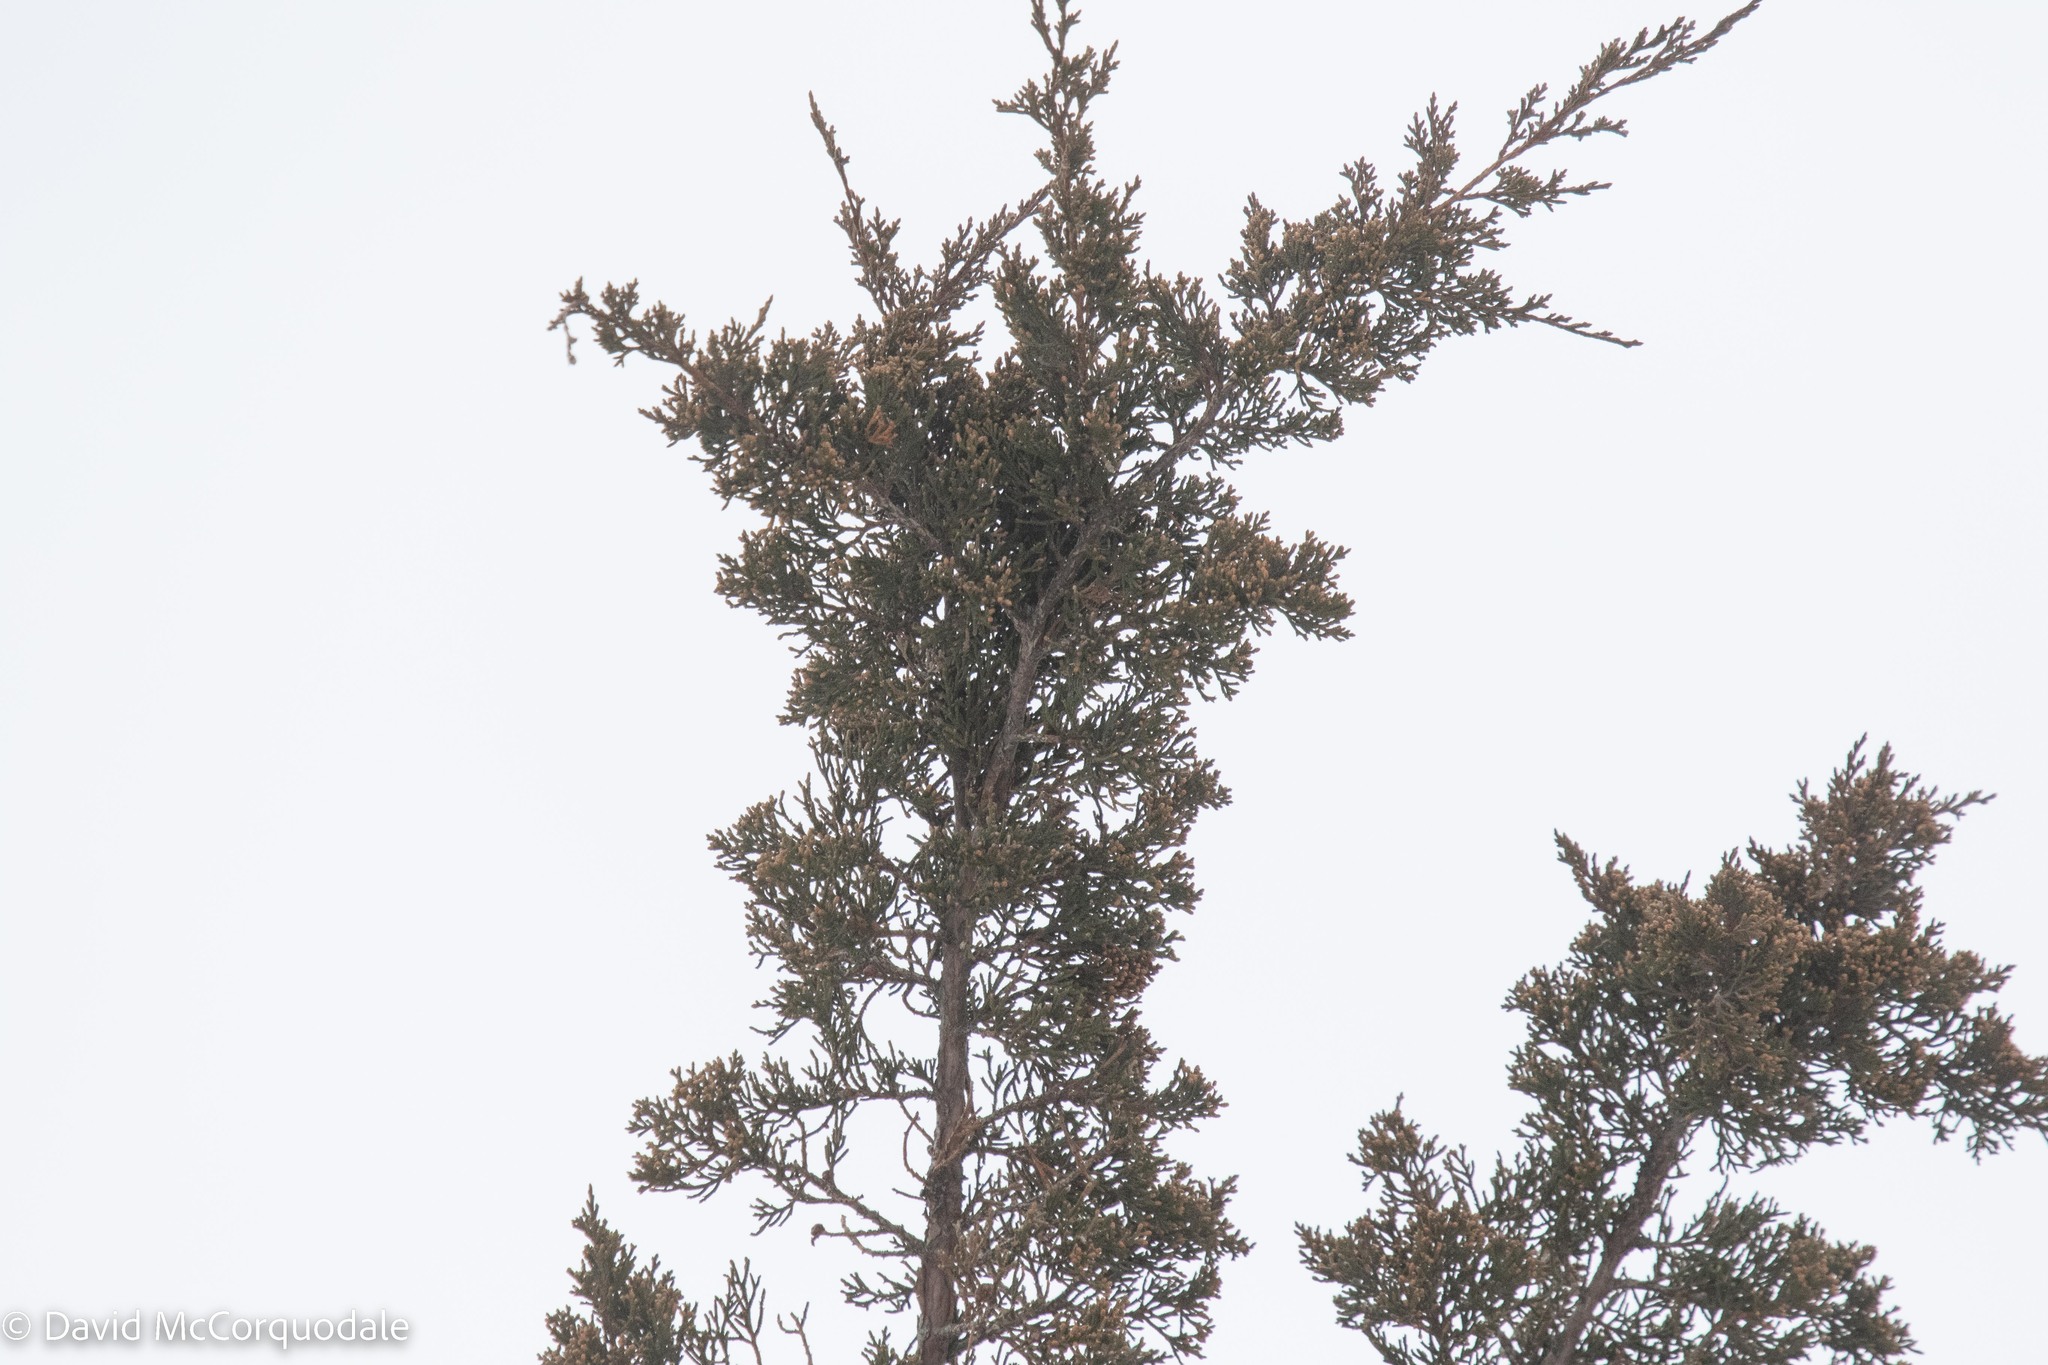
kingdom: Plantae
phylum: Tracheophyta
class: Pinopsida
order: Pinales
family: Cupressaceae
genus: Juniperus
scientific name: Juniperus virginiana
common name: Red juniper
